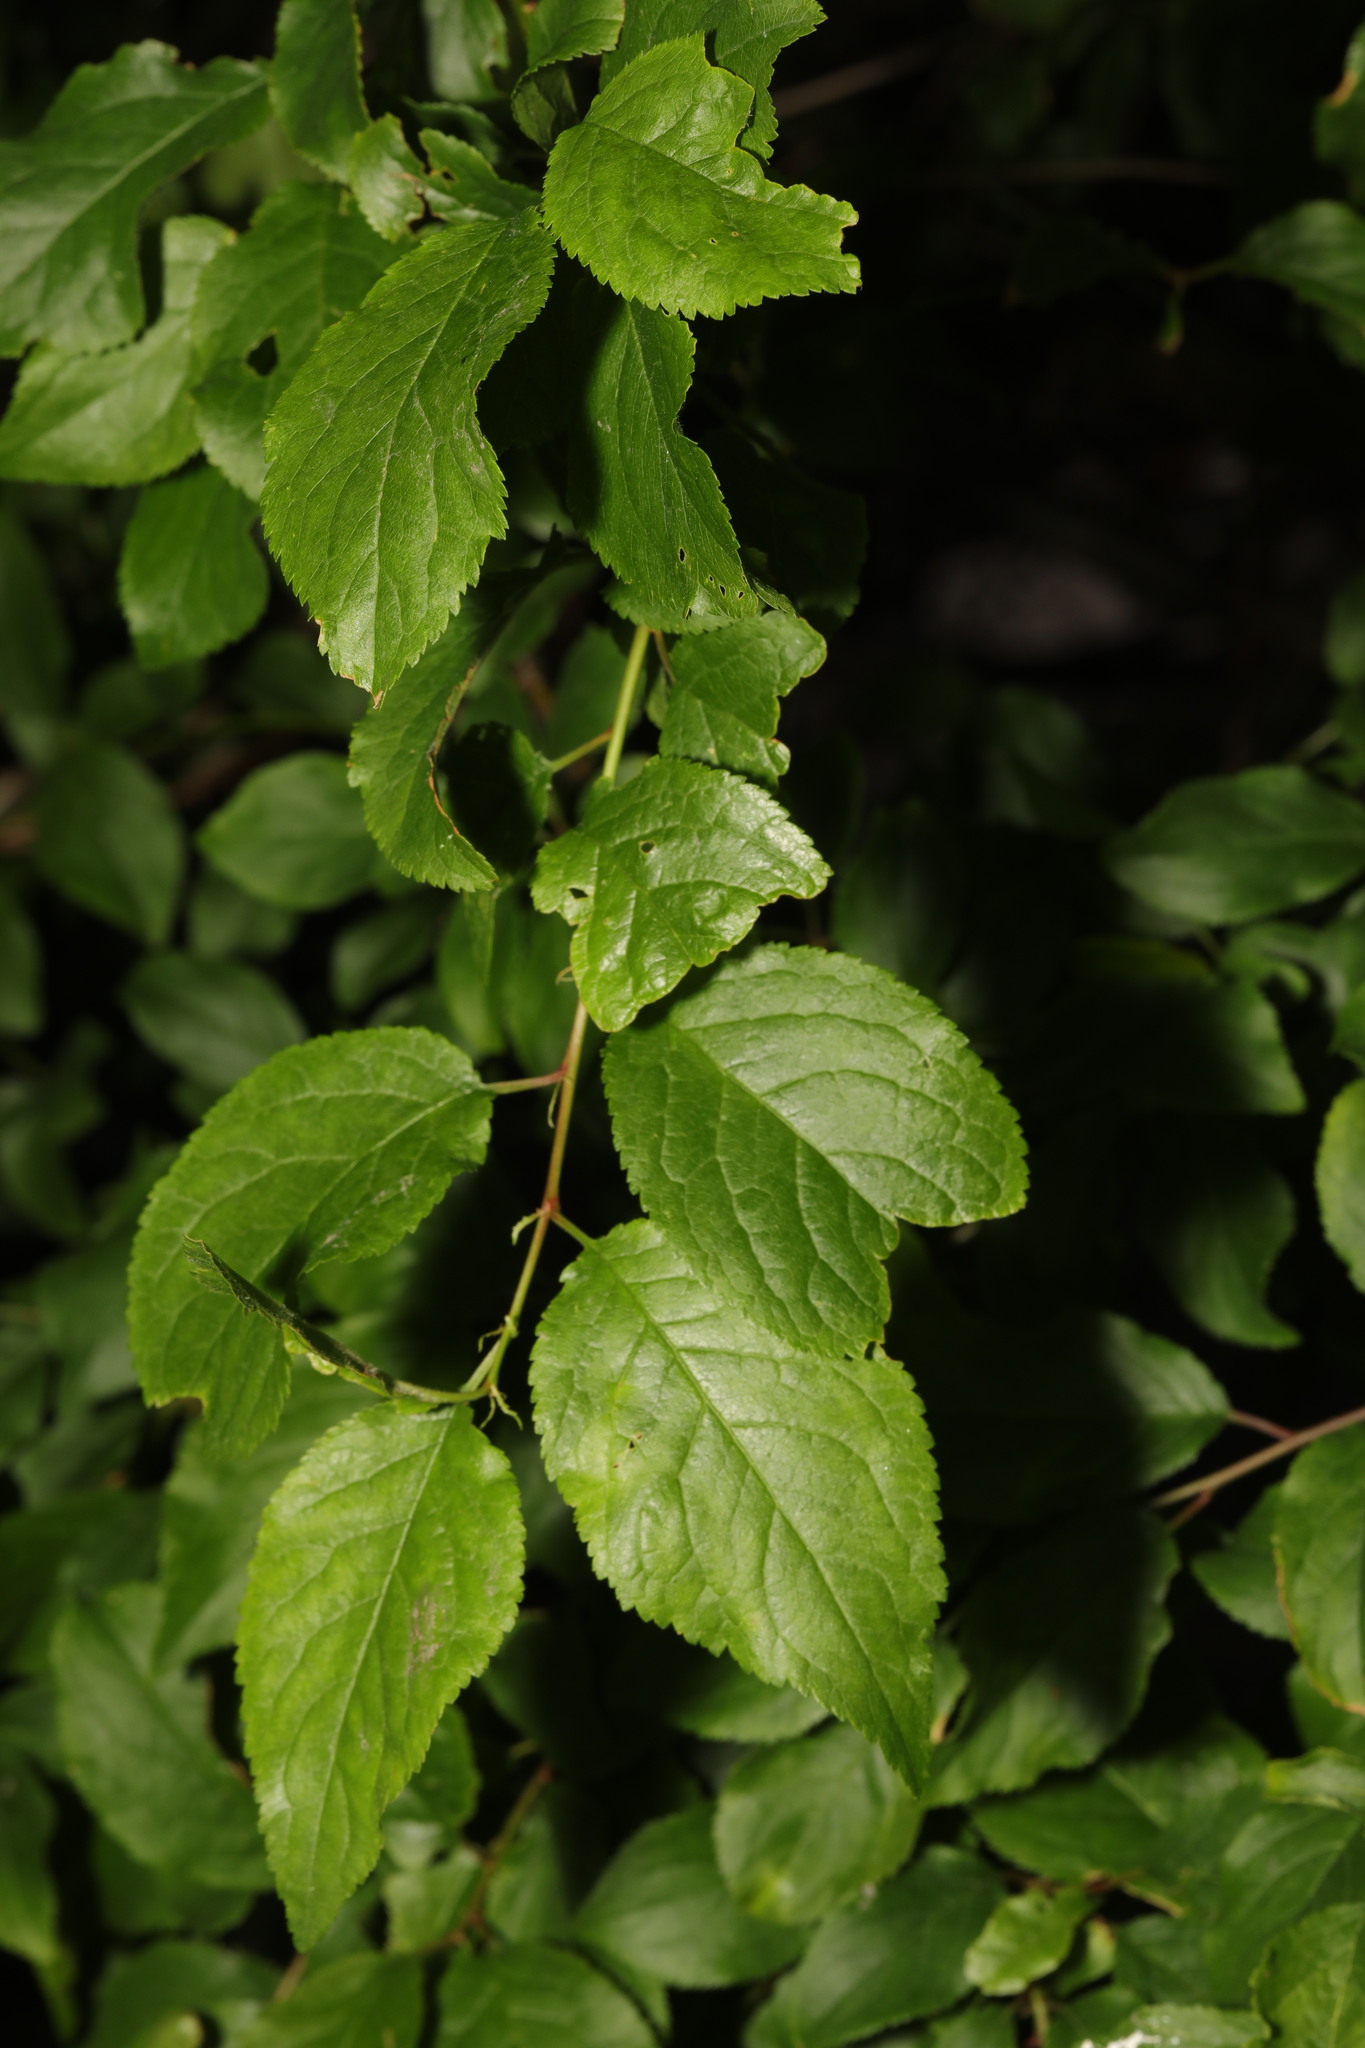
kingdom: Plantae
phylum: Tracheophyta
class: Magnoliopsida
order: Rosales
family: Rosaceae
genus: Prunus
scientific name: Prunus spinosa
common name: Blackthorn
